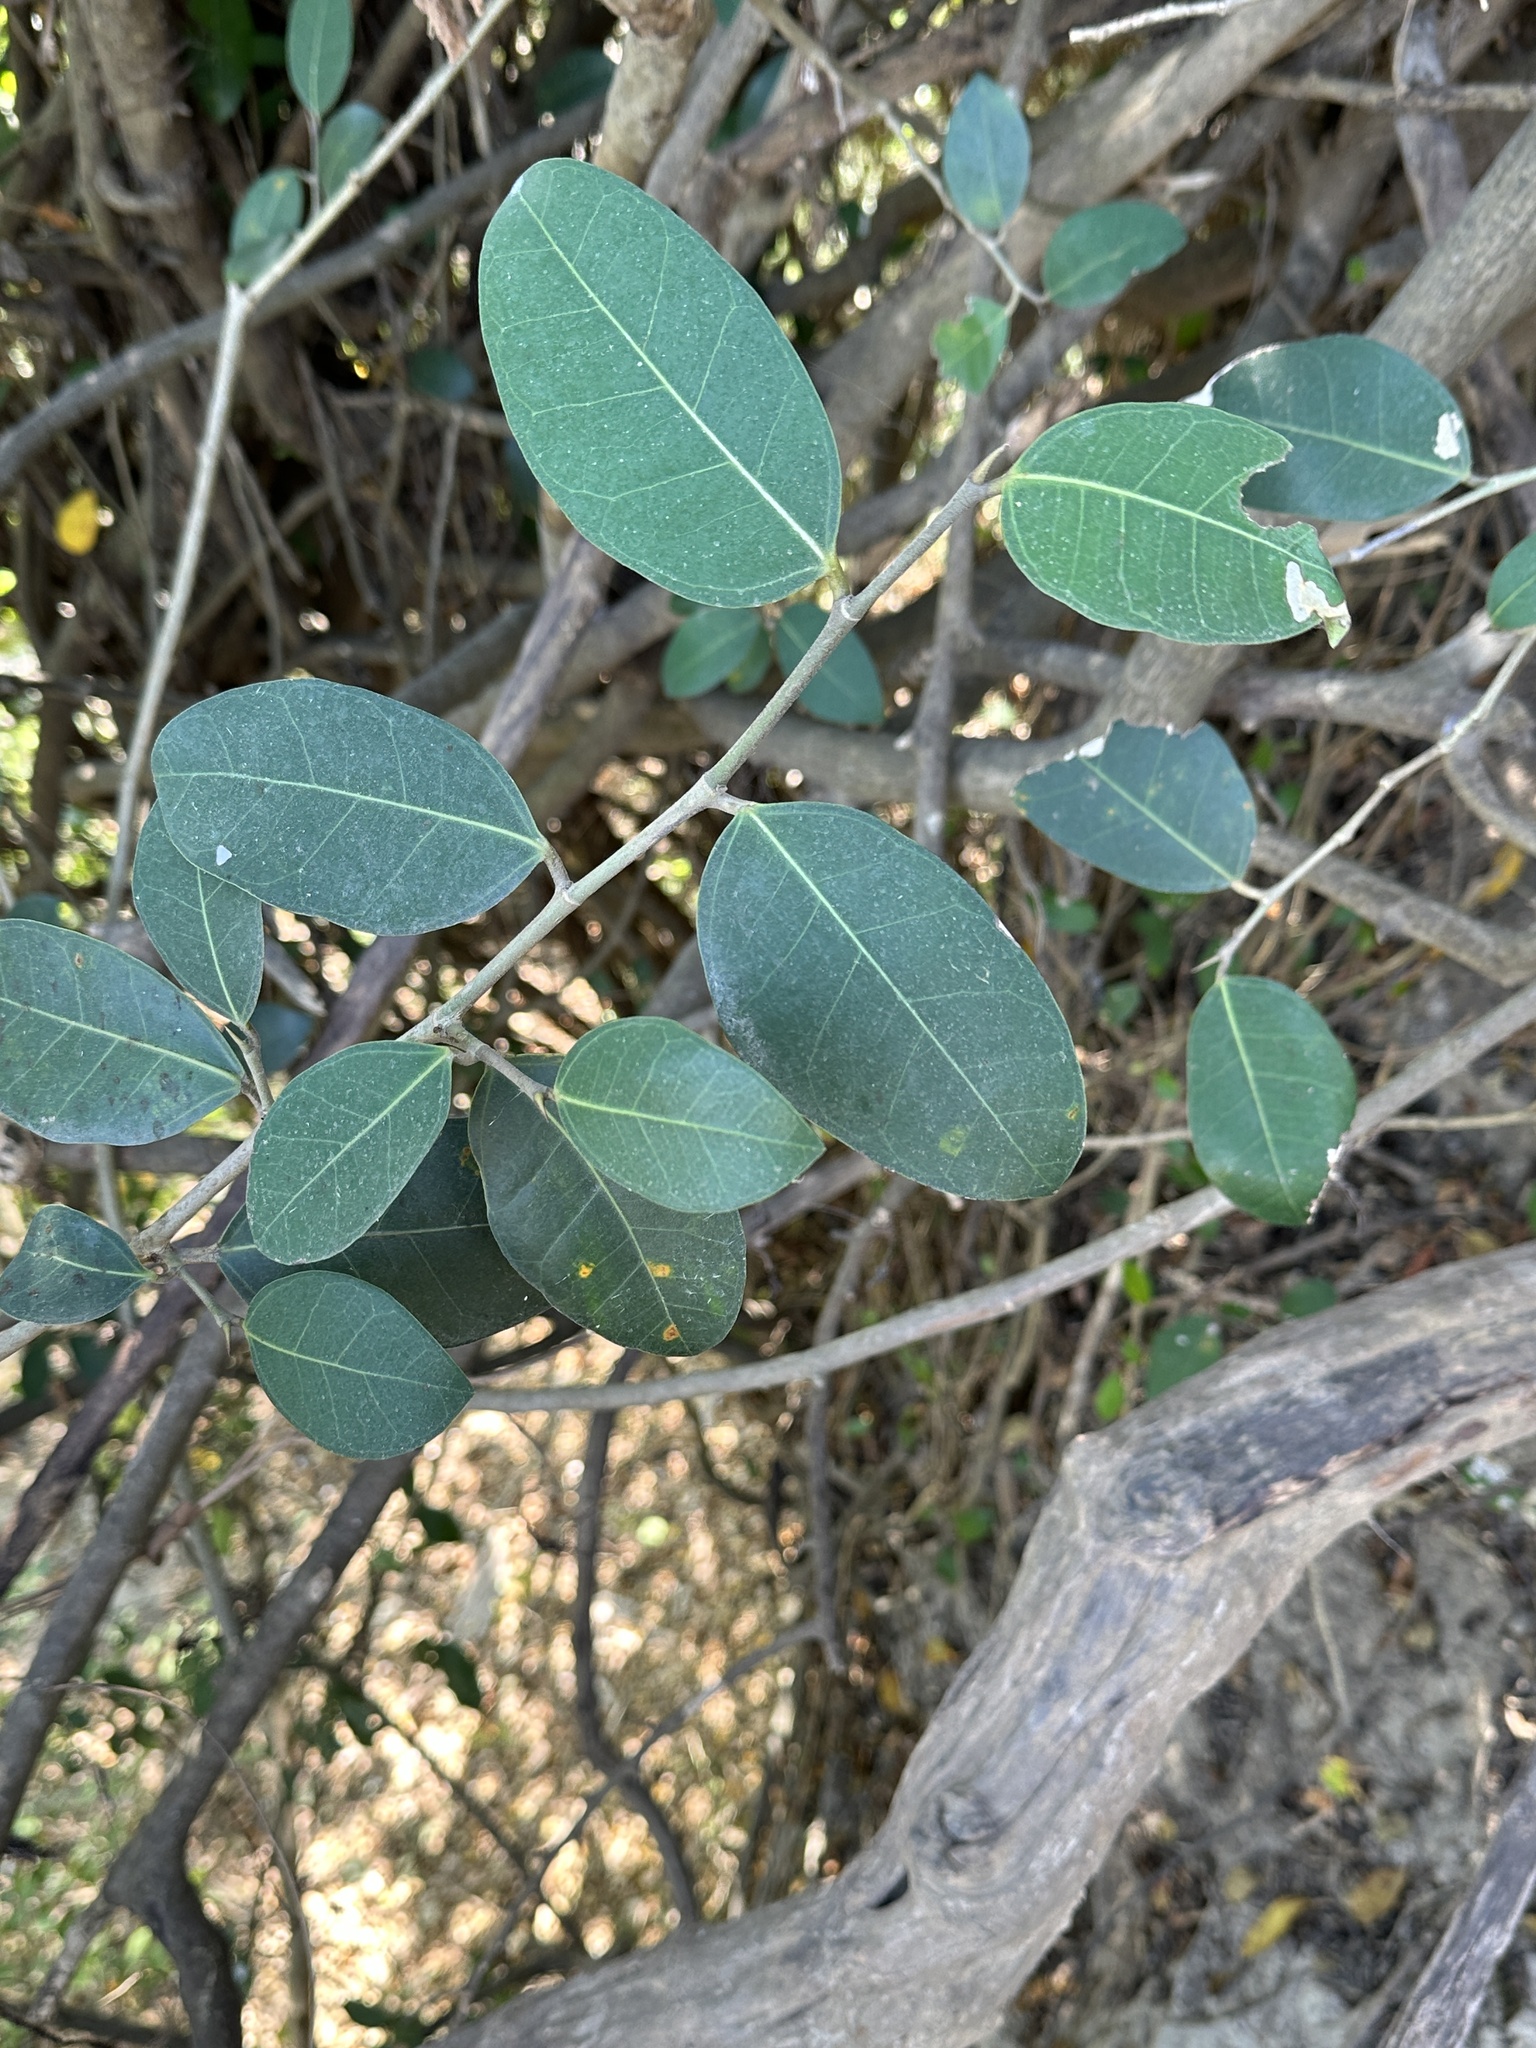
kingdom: Plantae
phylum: Tracheophyta
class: Magnoliopsida
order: Rosales
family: Moraceae
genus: Ficus
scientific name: Ficus tinctoria
